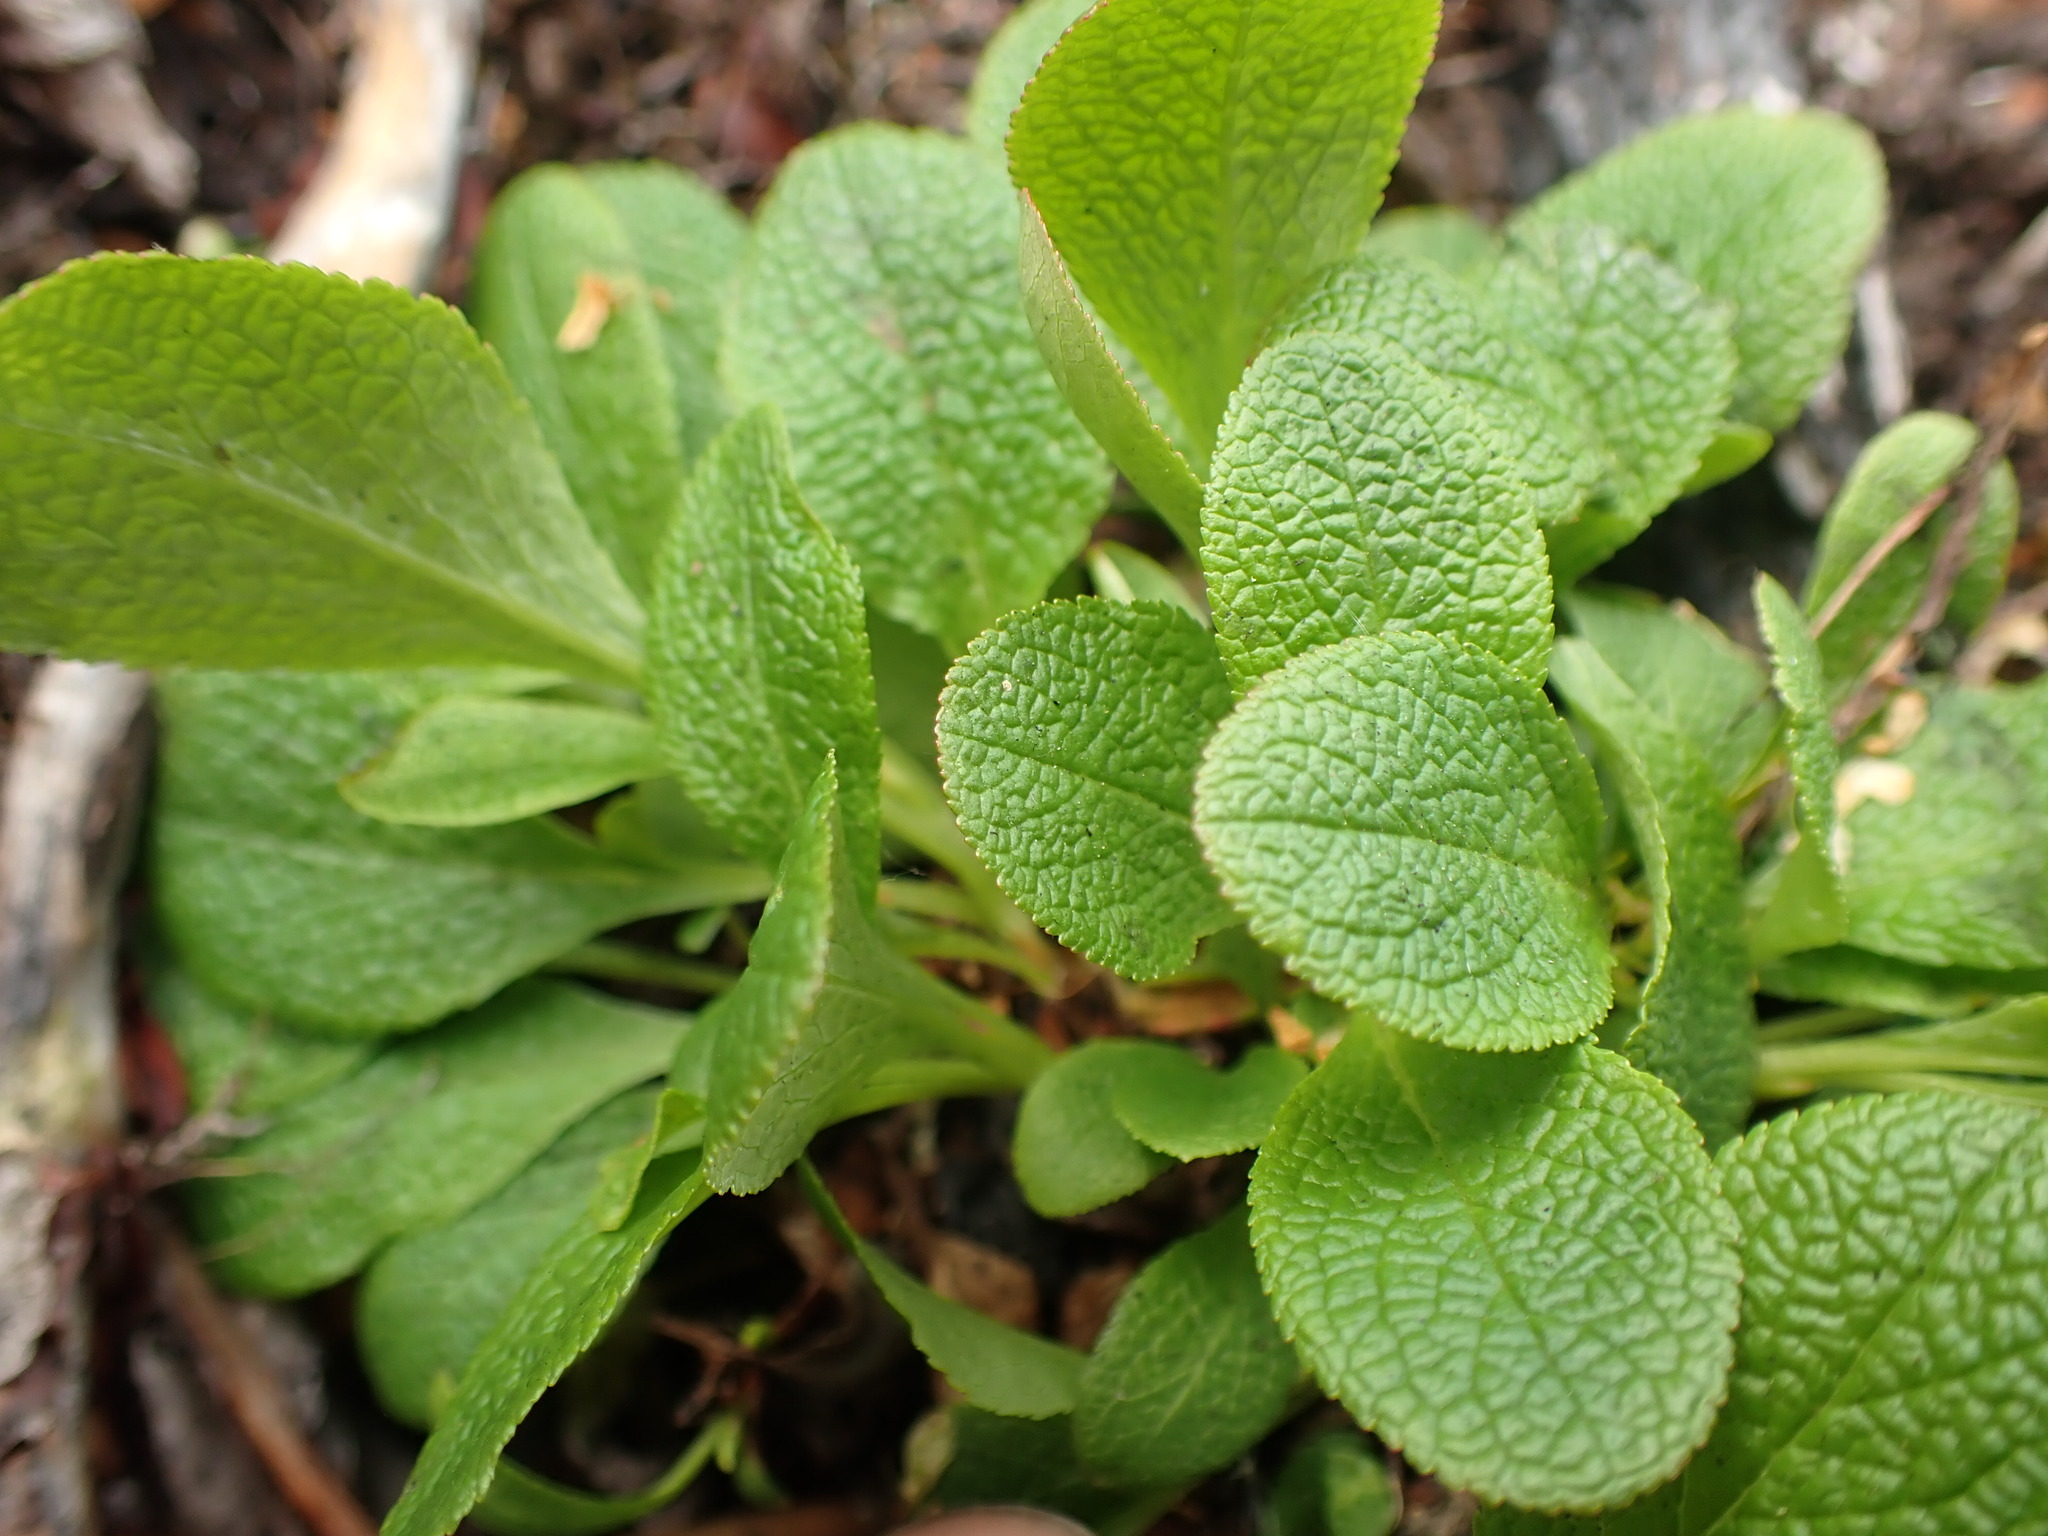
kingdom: Plantae
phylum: Tracheophyta
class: Magnoliopsida
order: Ericales
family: Ericaceae
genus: Arctostaphylos
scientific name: Arctostaphylos rubra
